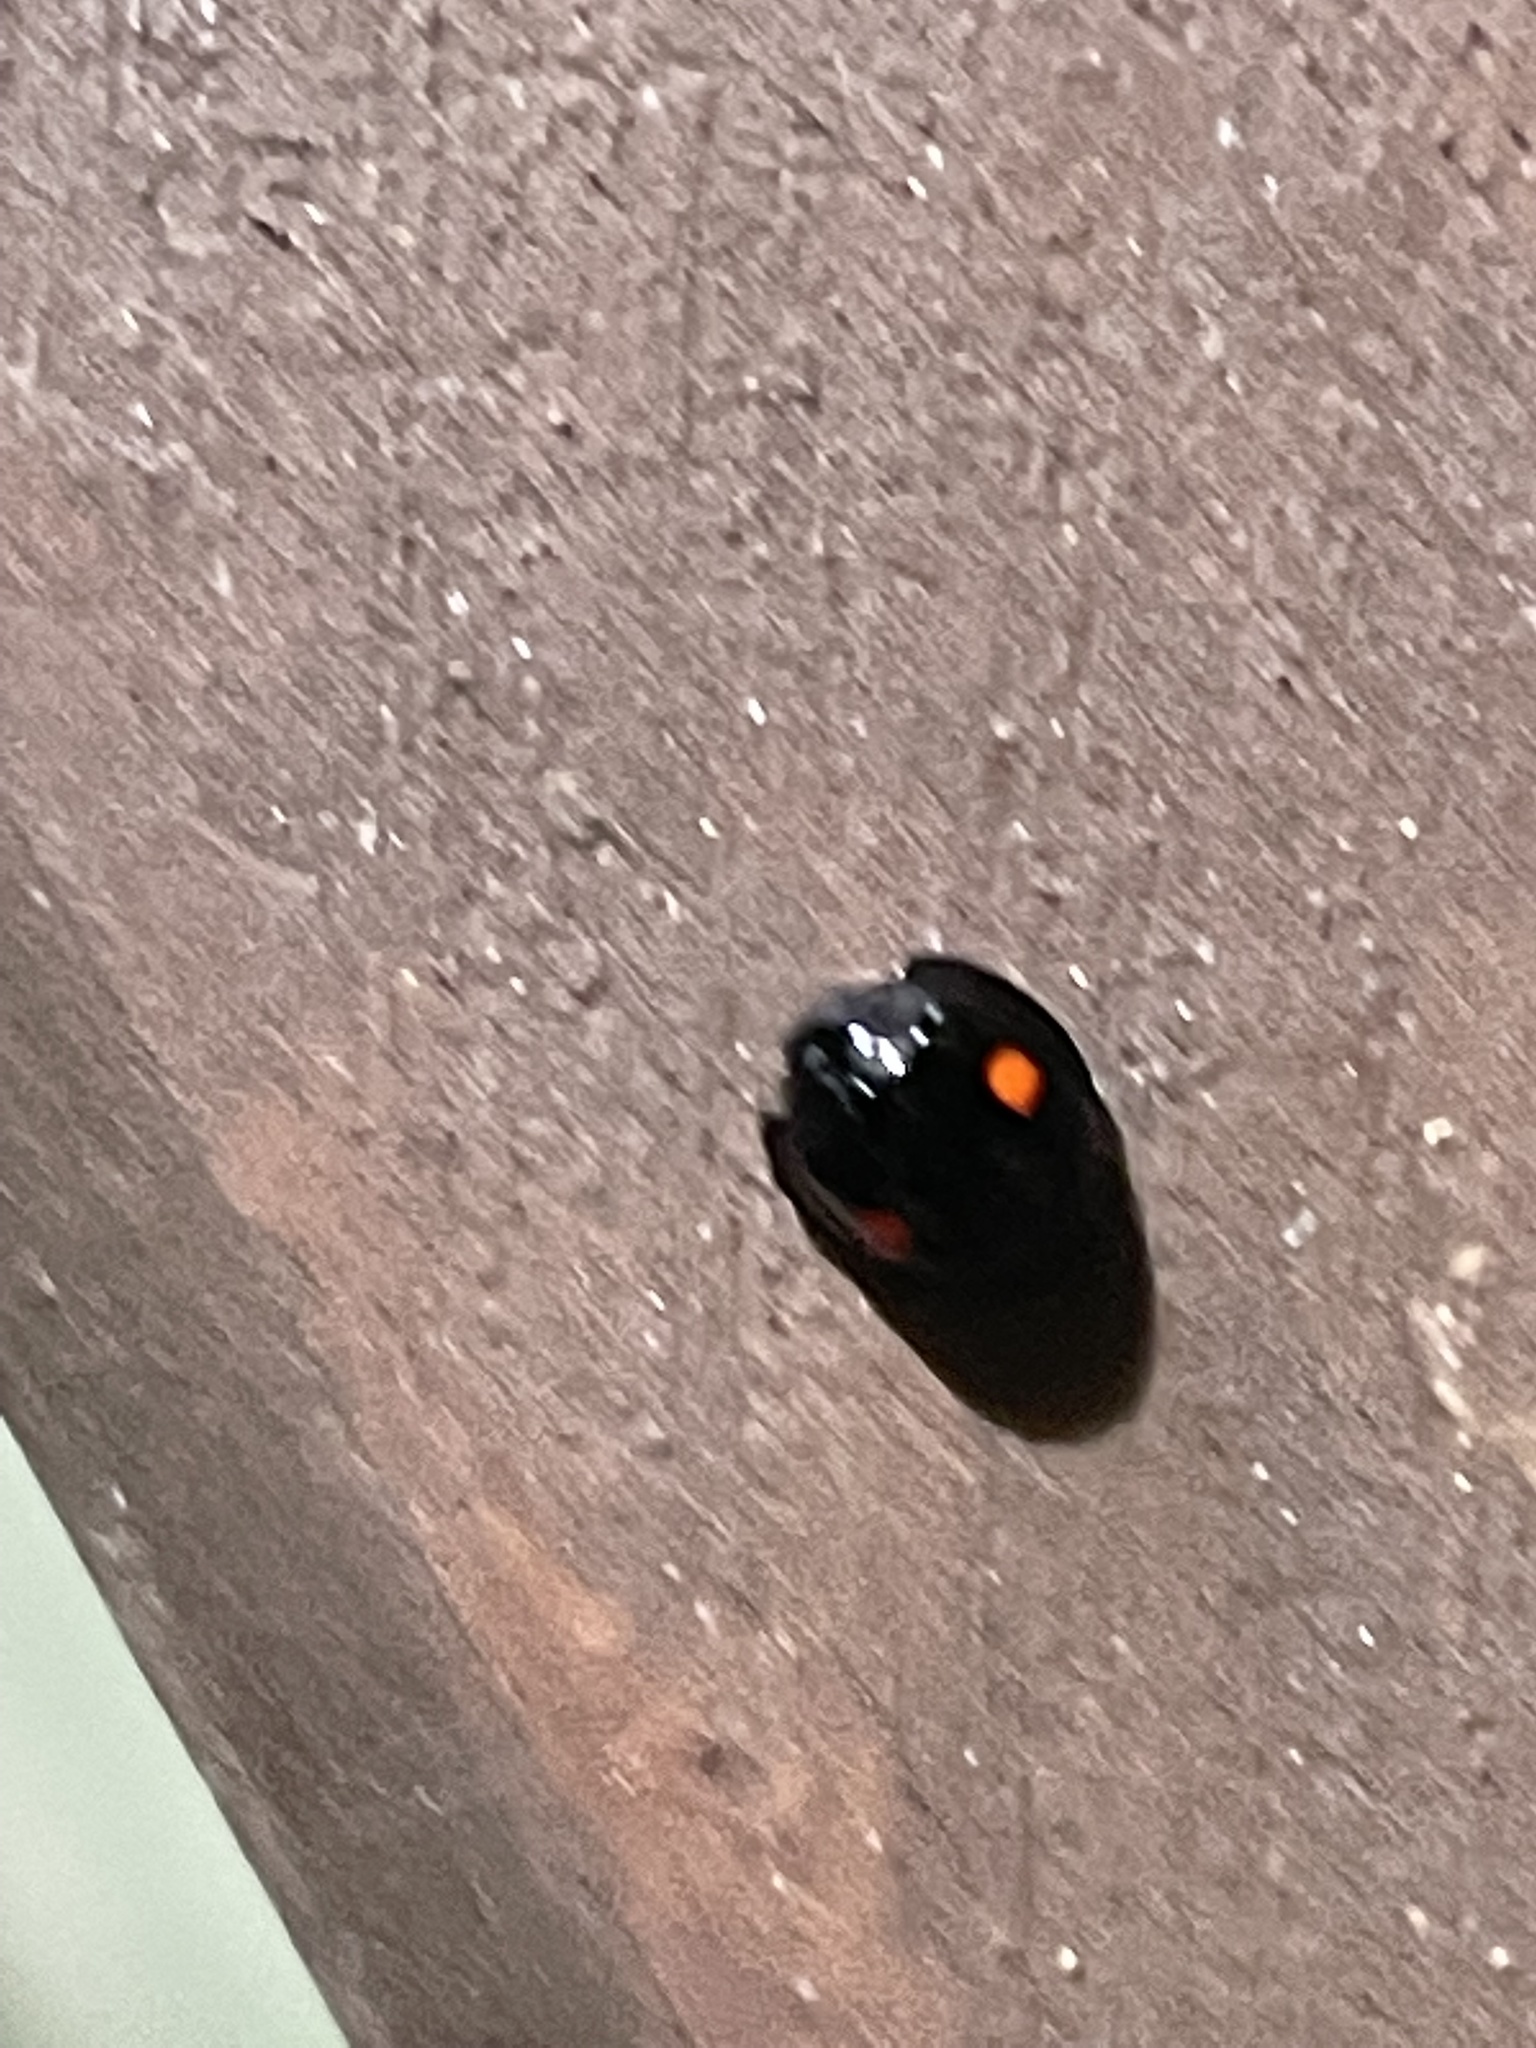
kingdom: Animalia
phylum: Arthropoda
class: Insecta
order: Coleoptera
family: Coccinellidae
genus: Chilocorus
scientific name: Chilocorus stigma
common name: Twicestabbed lady beetle
